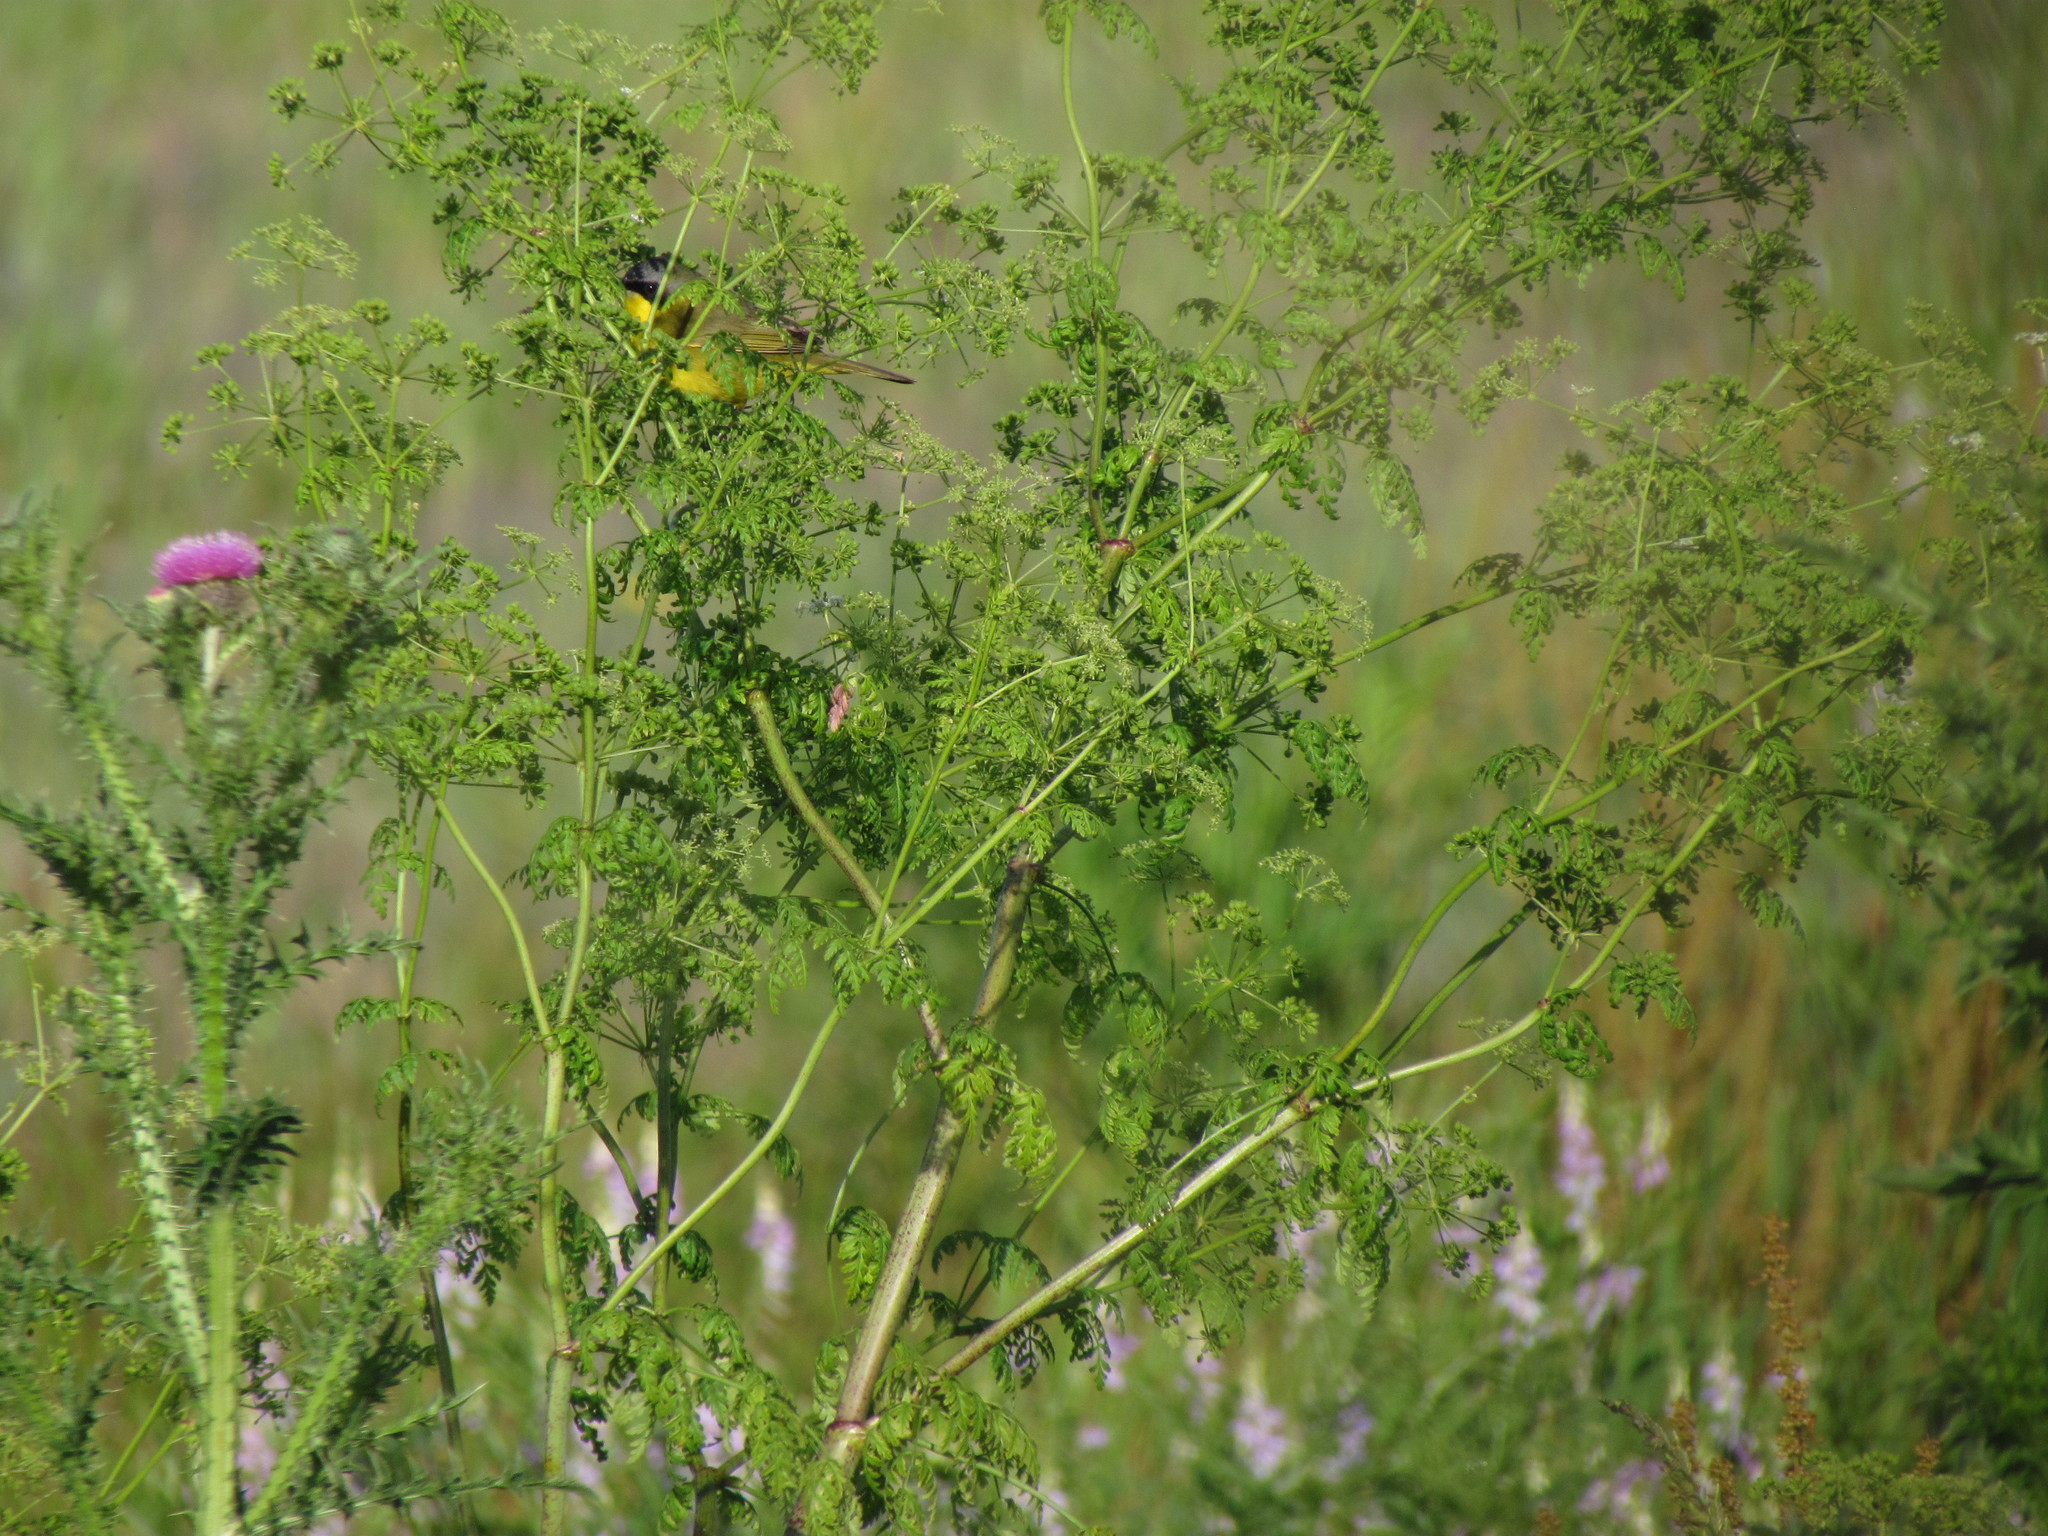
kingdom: Animalia
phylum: Chordata
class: Aves
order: Passeriformes
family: Parulidae
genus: Geothlypis
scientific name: Geothlypis velata
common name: Southern yellowthroat
